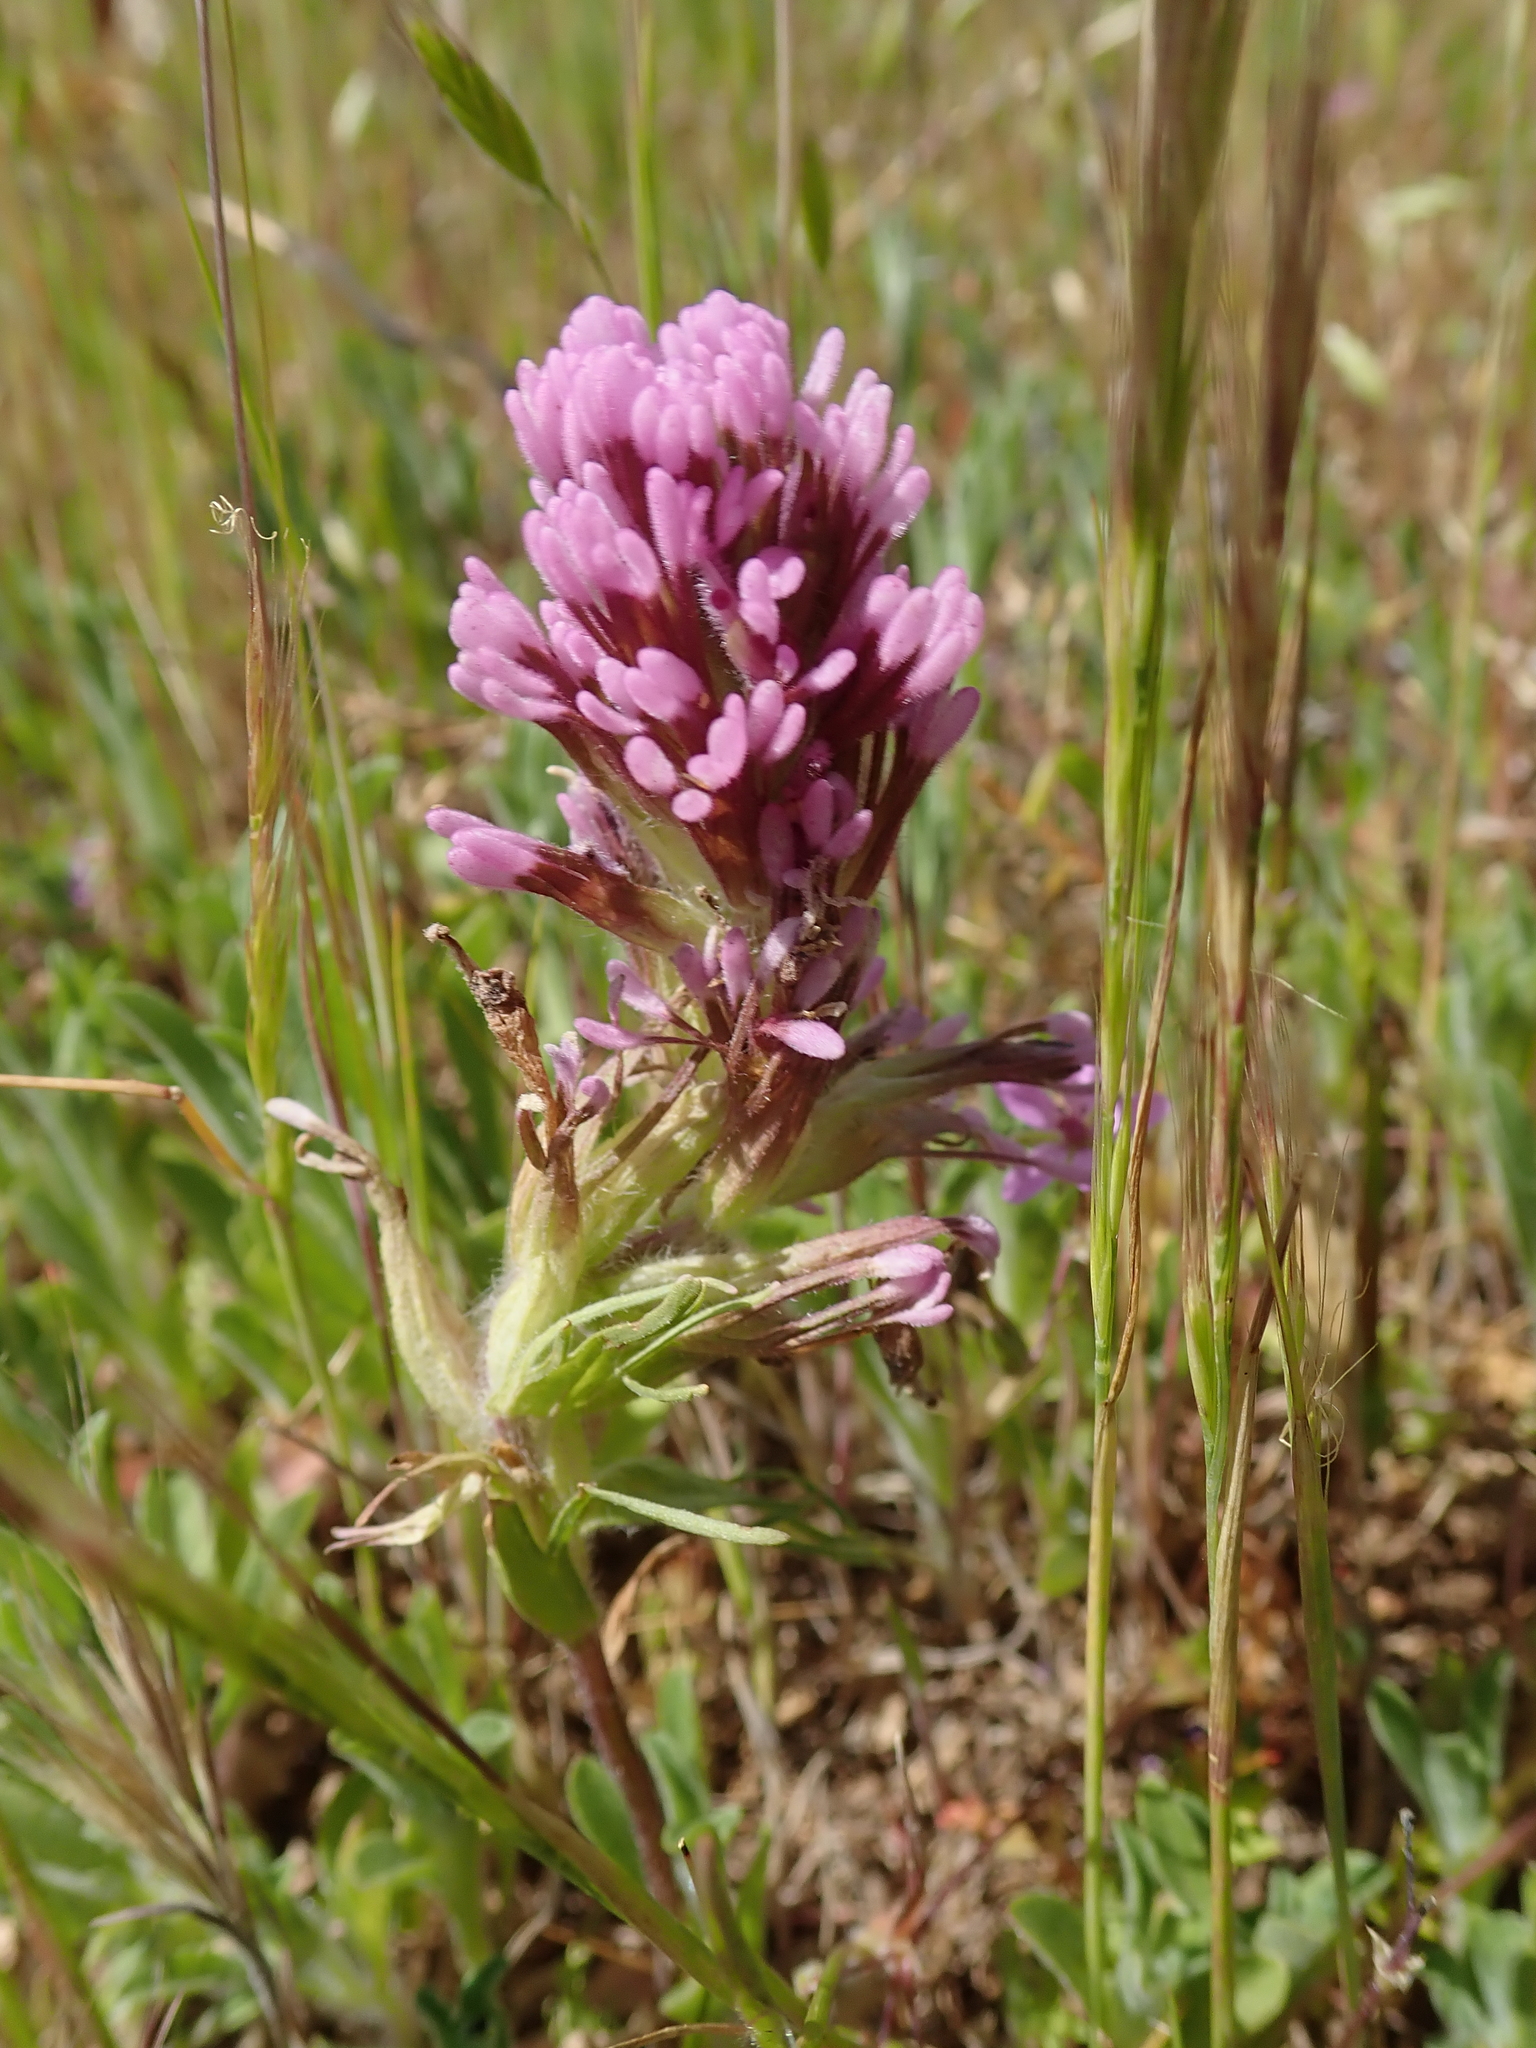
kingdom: Plantae
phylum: Tracheophyta
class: Magnoliopsida
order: Lamiales
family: Orobanchaceae
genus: Castilleja
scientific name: Castilleja exserta
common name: Purple owl-clover
